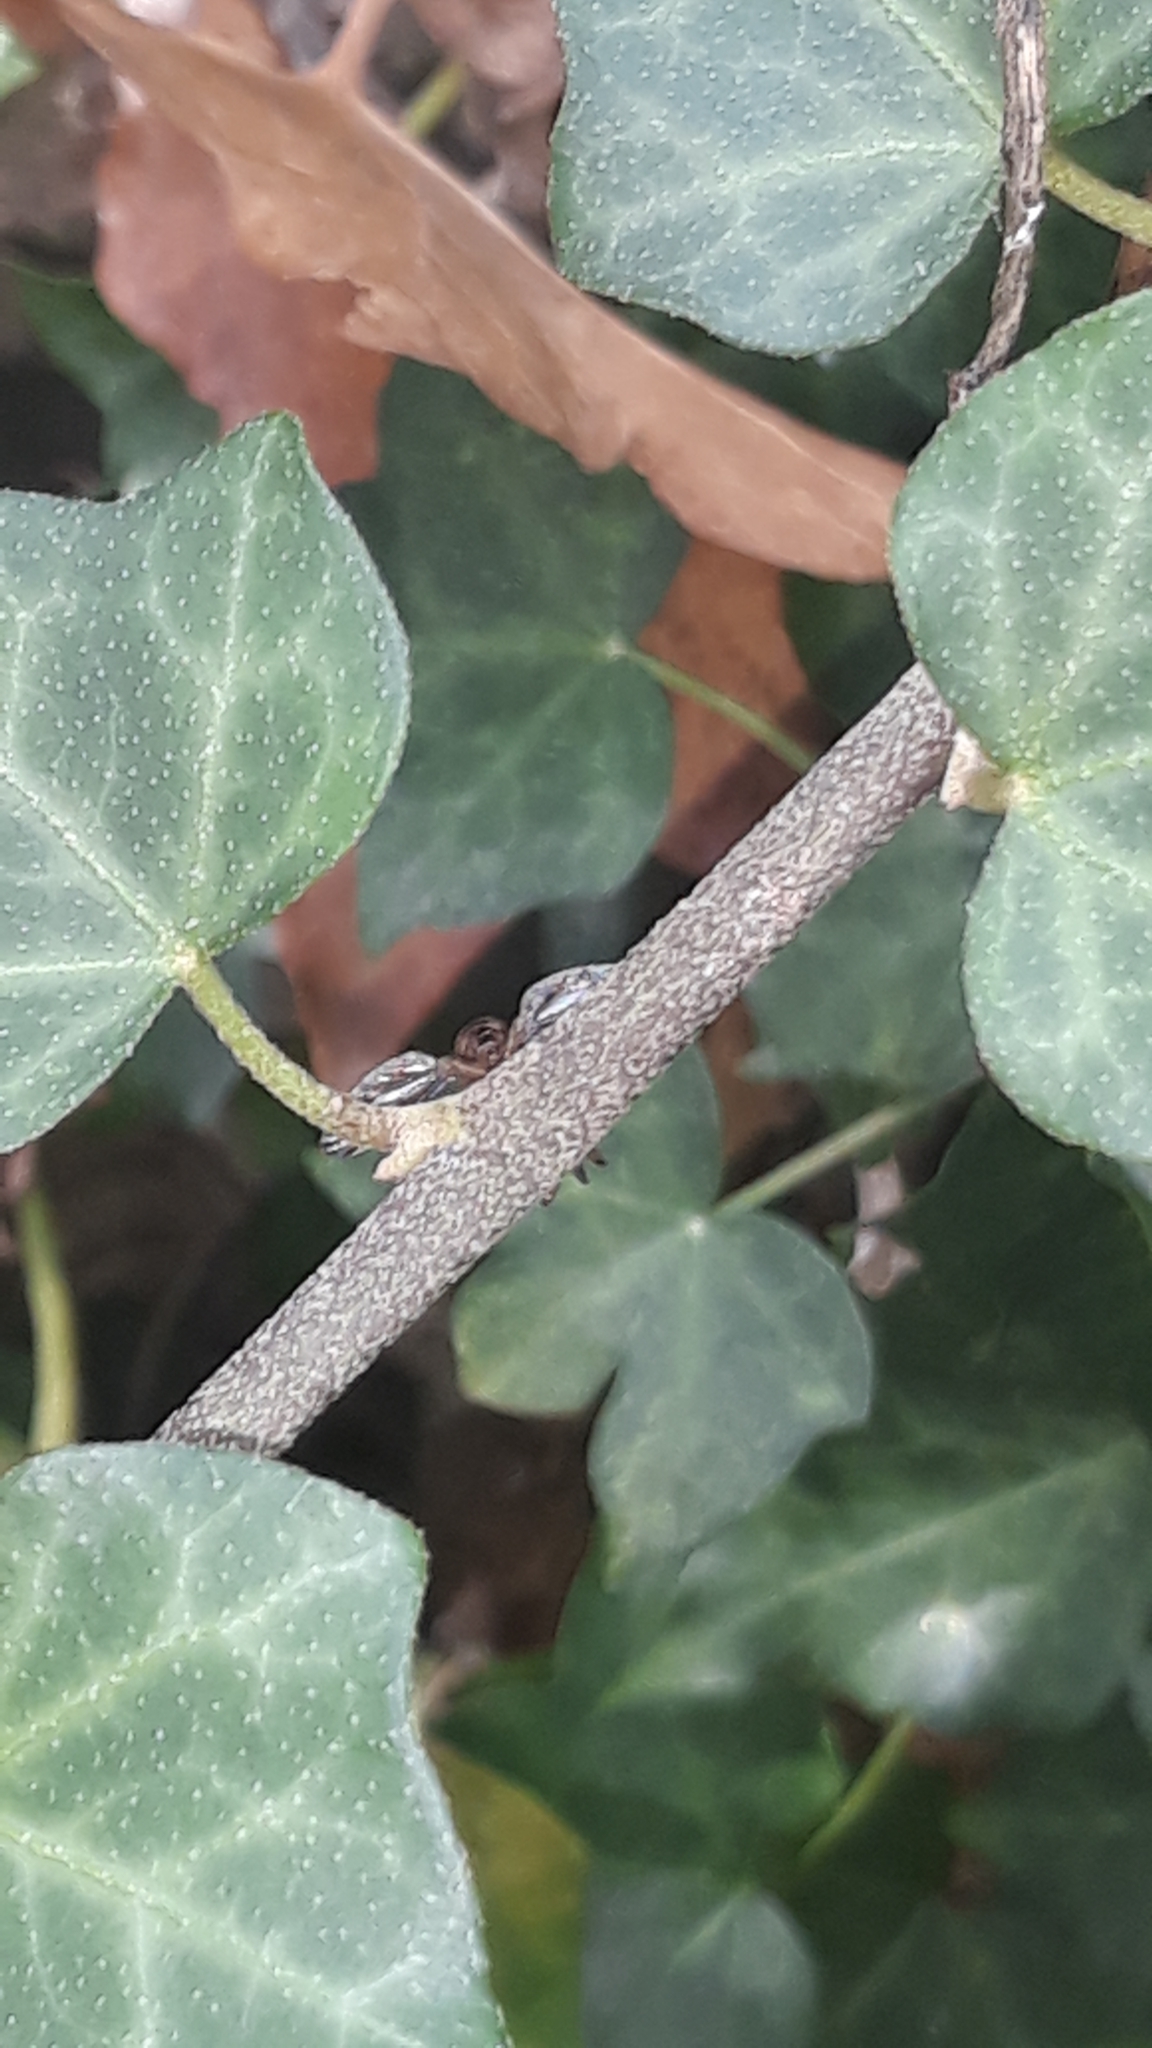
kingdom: Animalia
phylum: Arthropoda
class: Insecta
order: Diptera
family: Pallopteridae
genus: Toxonevra
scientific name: Toxonevra muliebris
